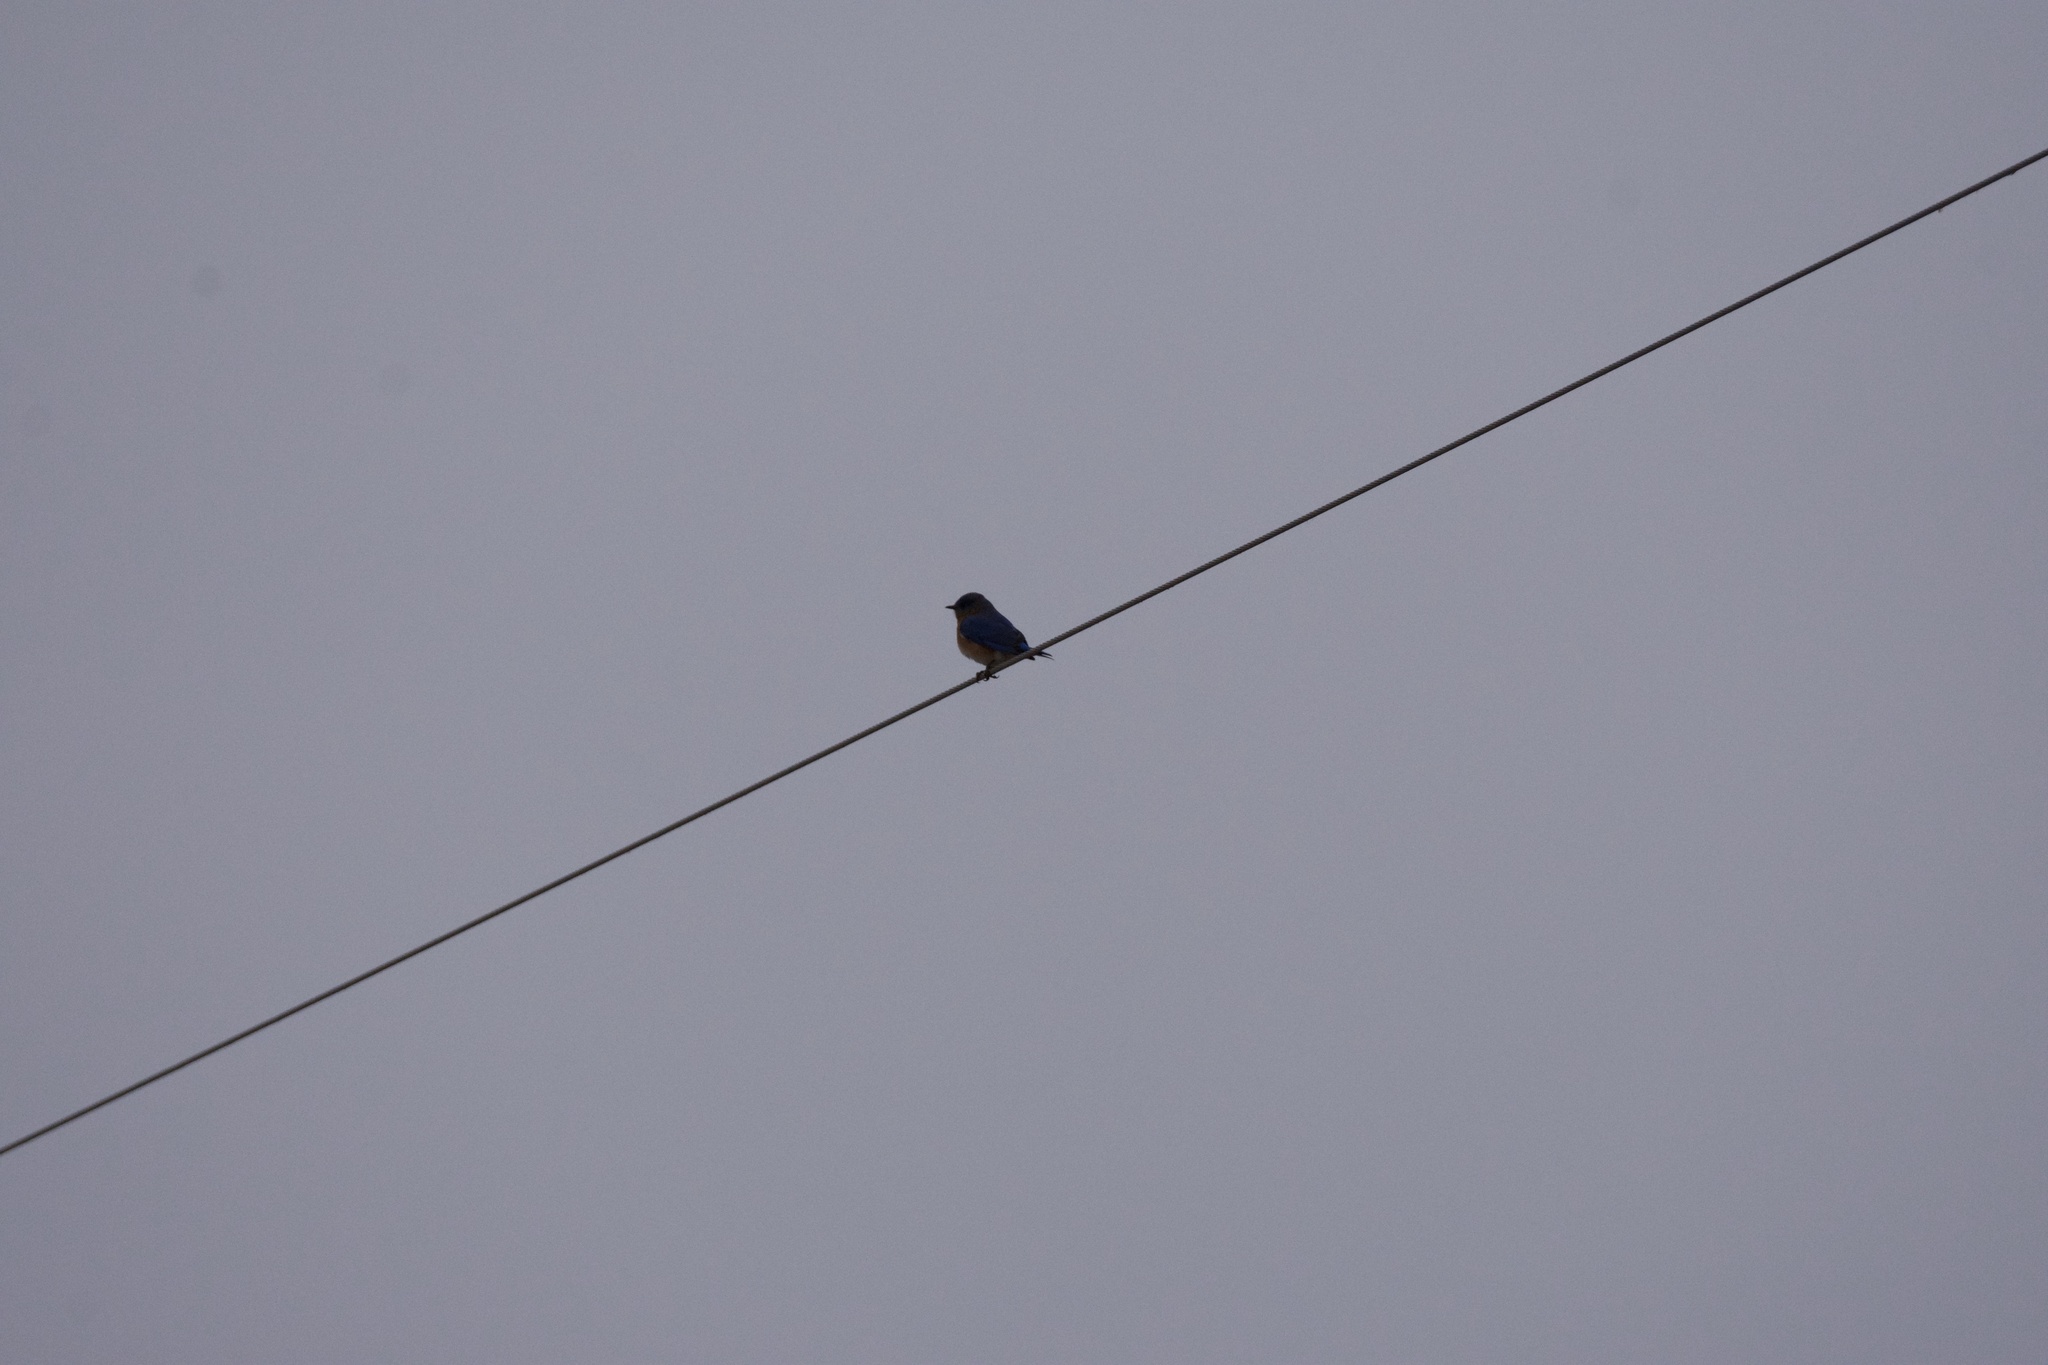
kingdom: Animalia
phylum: Chordata
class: Aves
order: Passeriformes
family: Turdidae
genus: Sialia
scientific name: Sialia sialis
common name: Eastern bluebird
